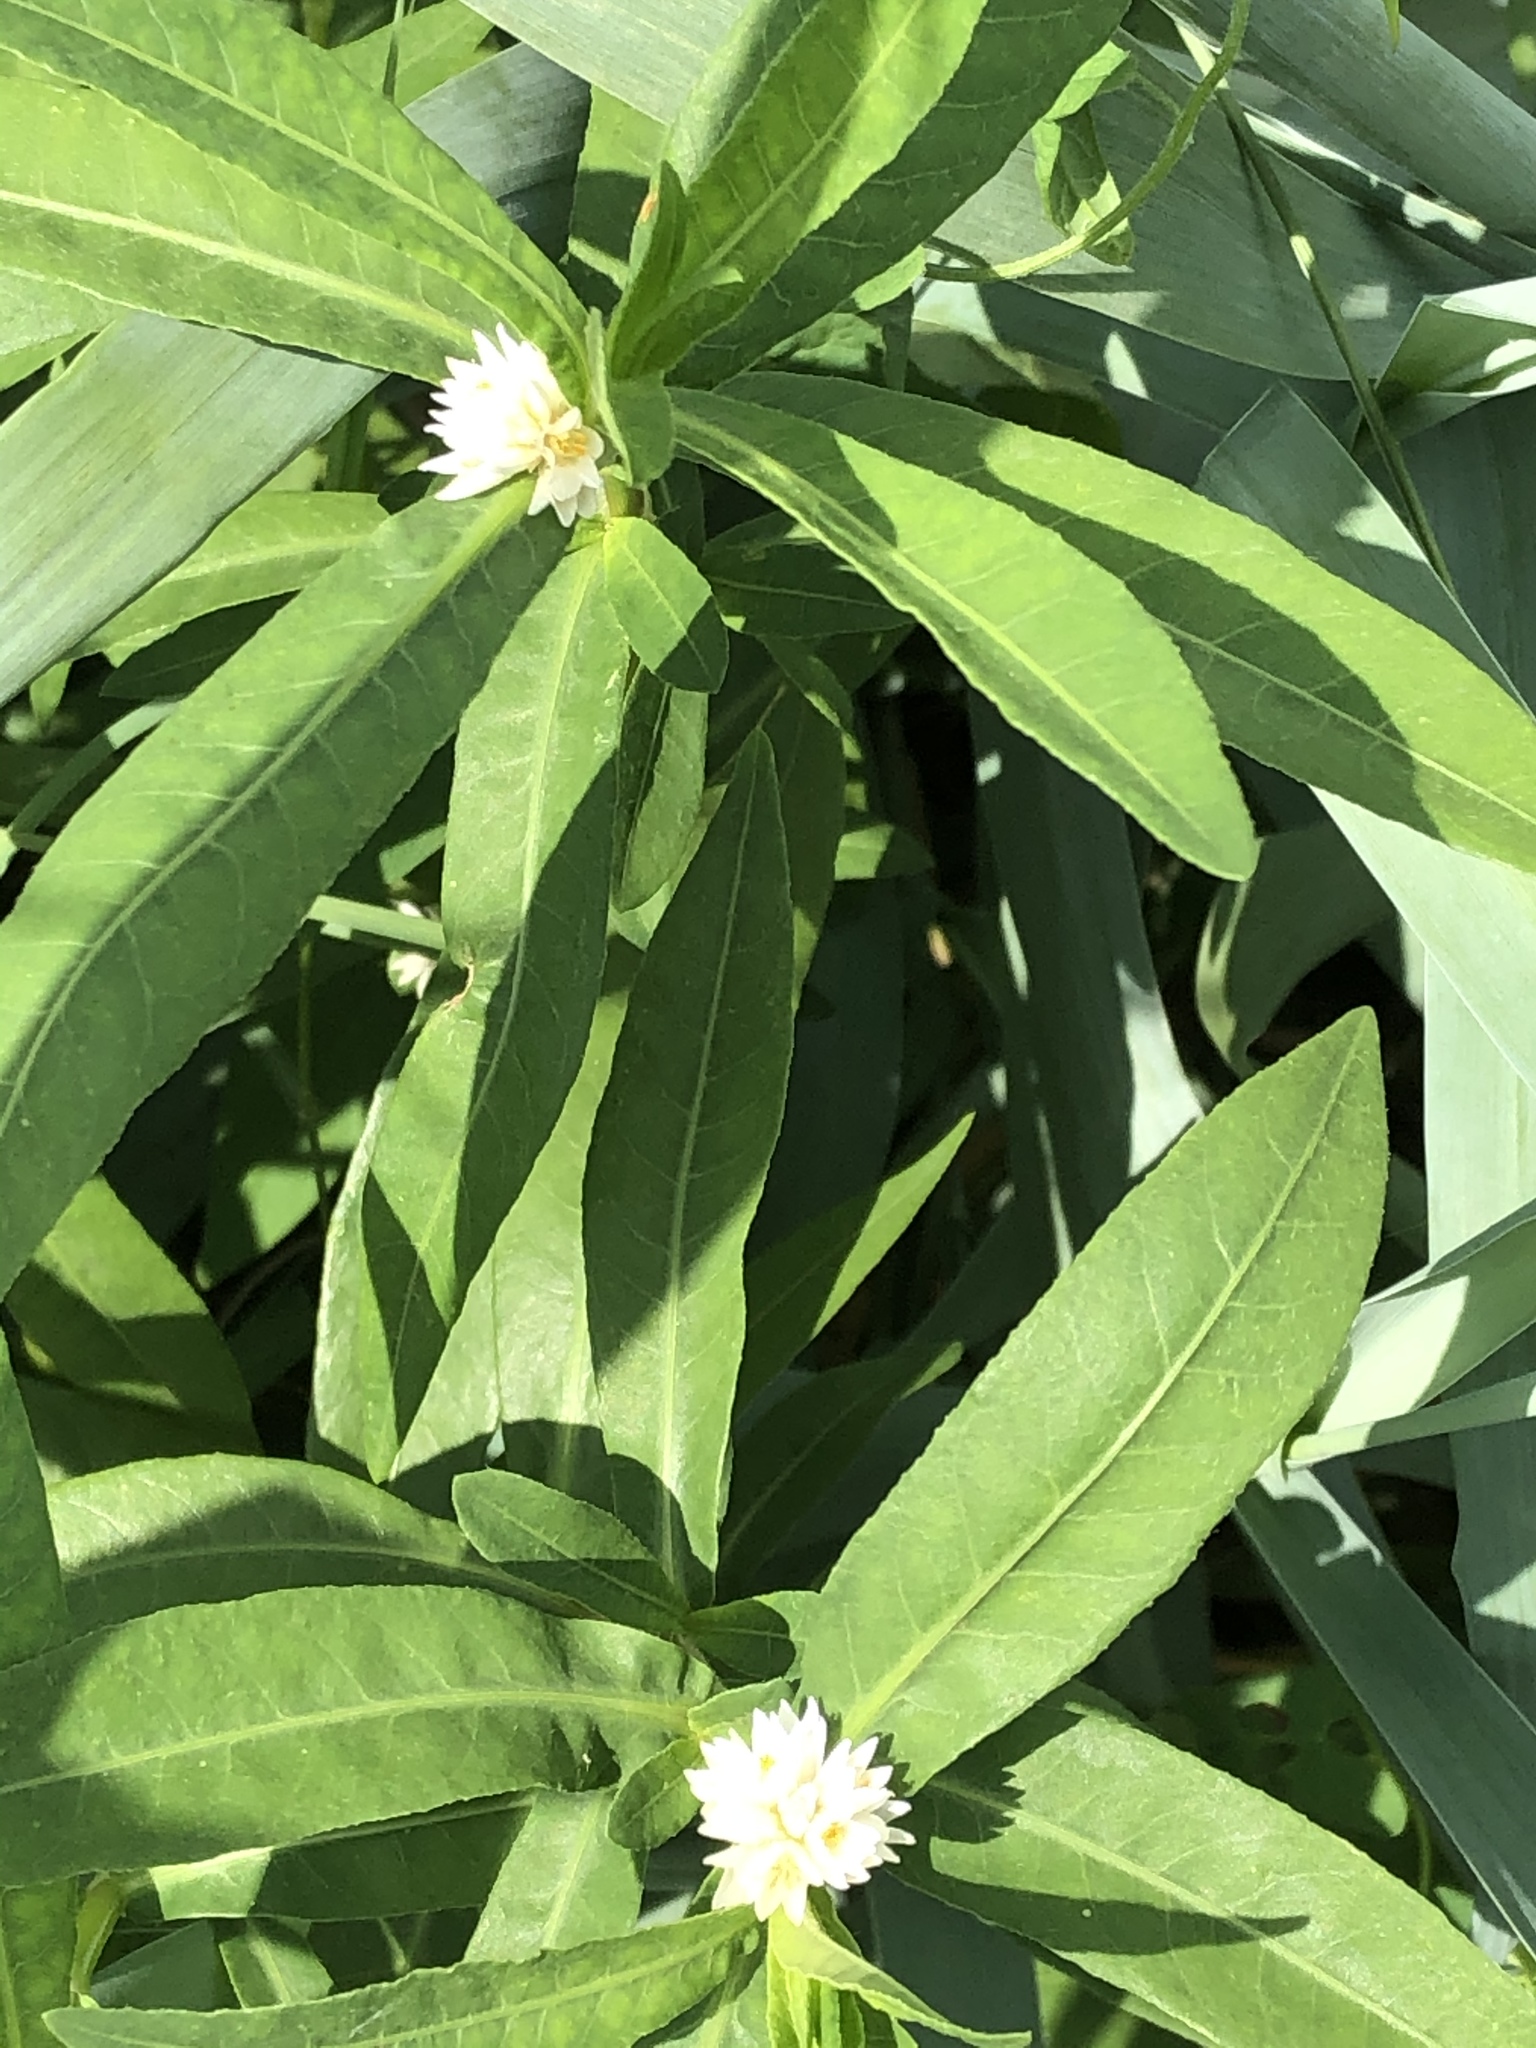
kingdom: Plantae
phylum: Tracheophyta
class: Magnoliopsida
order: Caryophyllales
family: Amaranthaceae
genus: Alternanthera
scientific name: Alternanthera philoxeroides
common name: Alligatorweed
